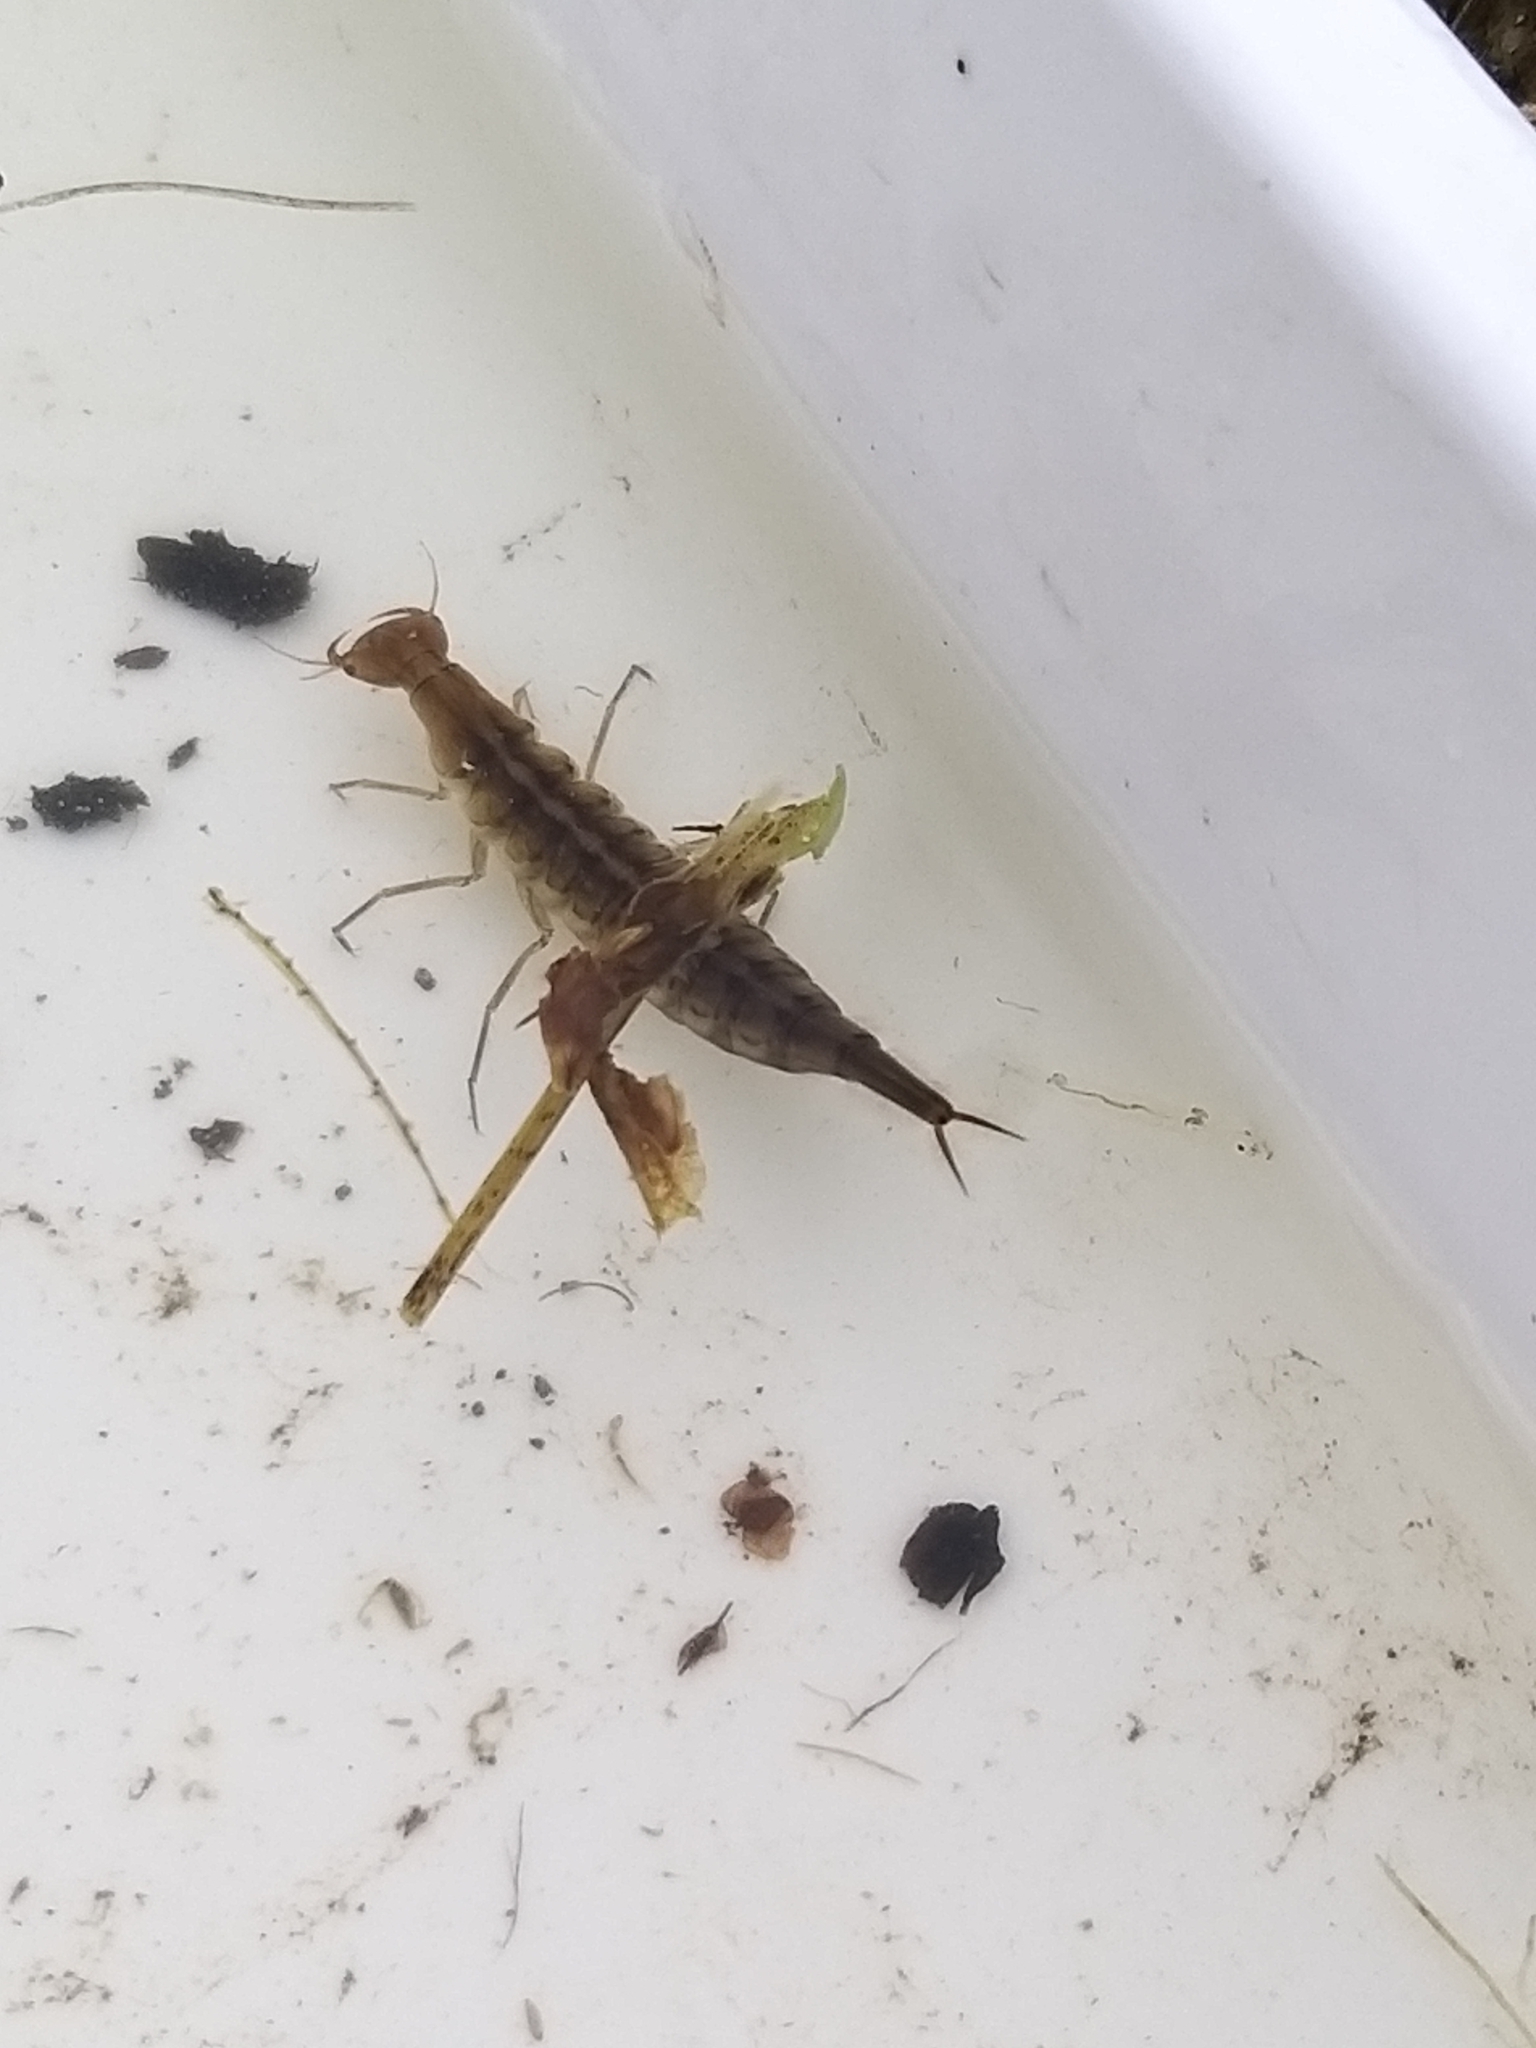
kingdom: Animalia
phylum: Arthropoda
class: Insecta
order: Coleoptera
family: Dytiscidae
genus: Dytiscus
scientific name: Dytiscus
